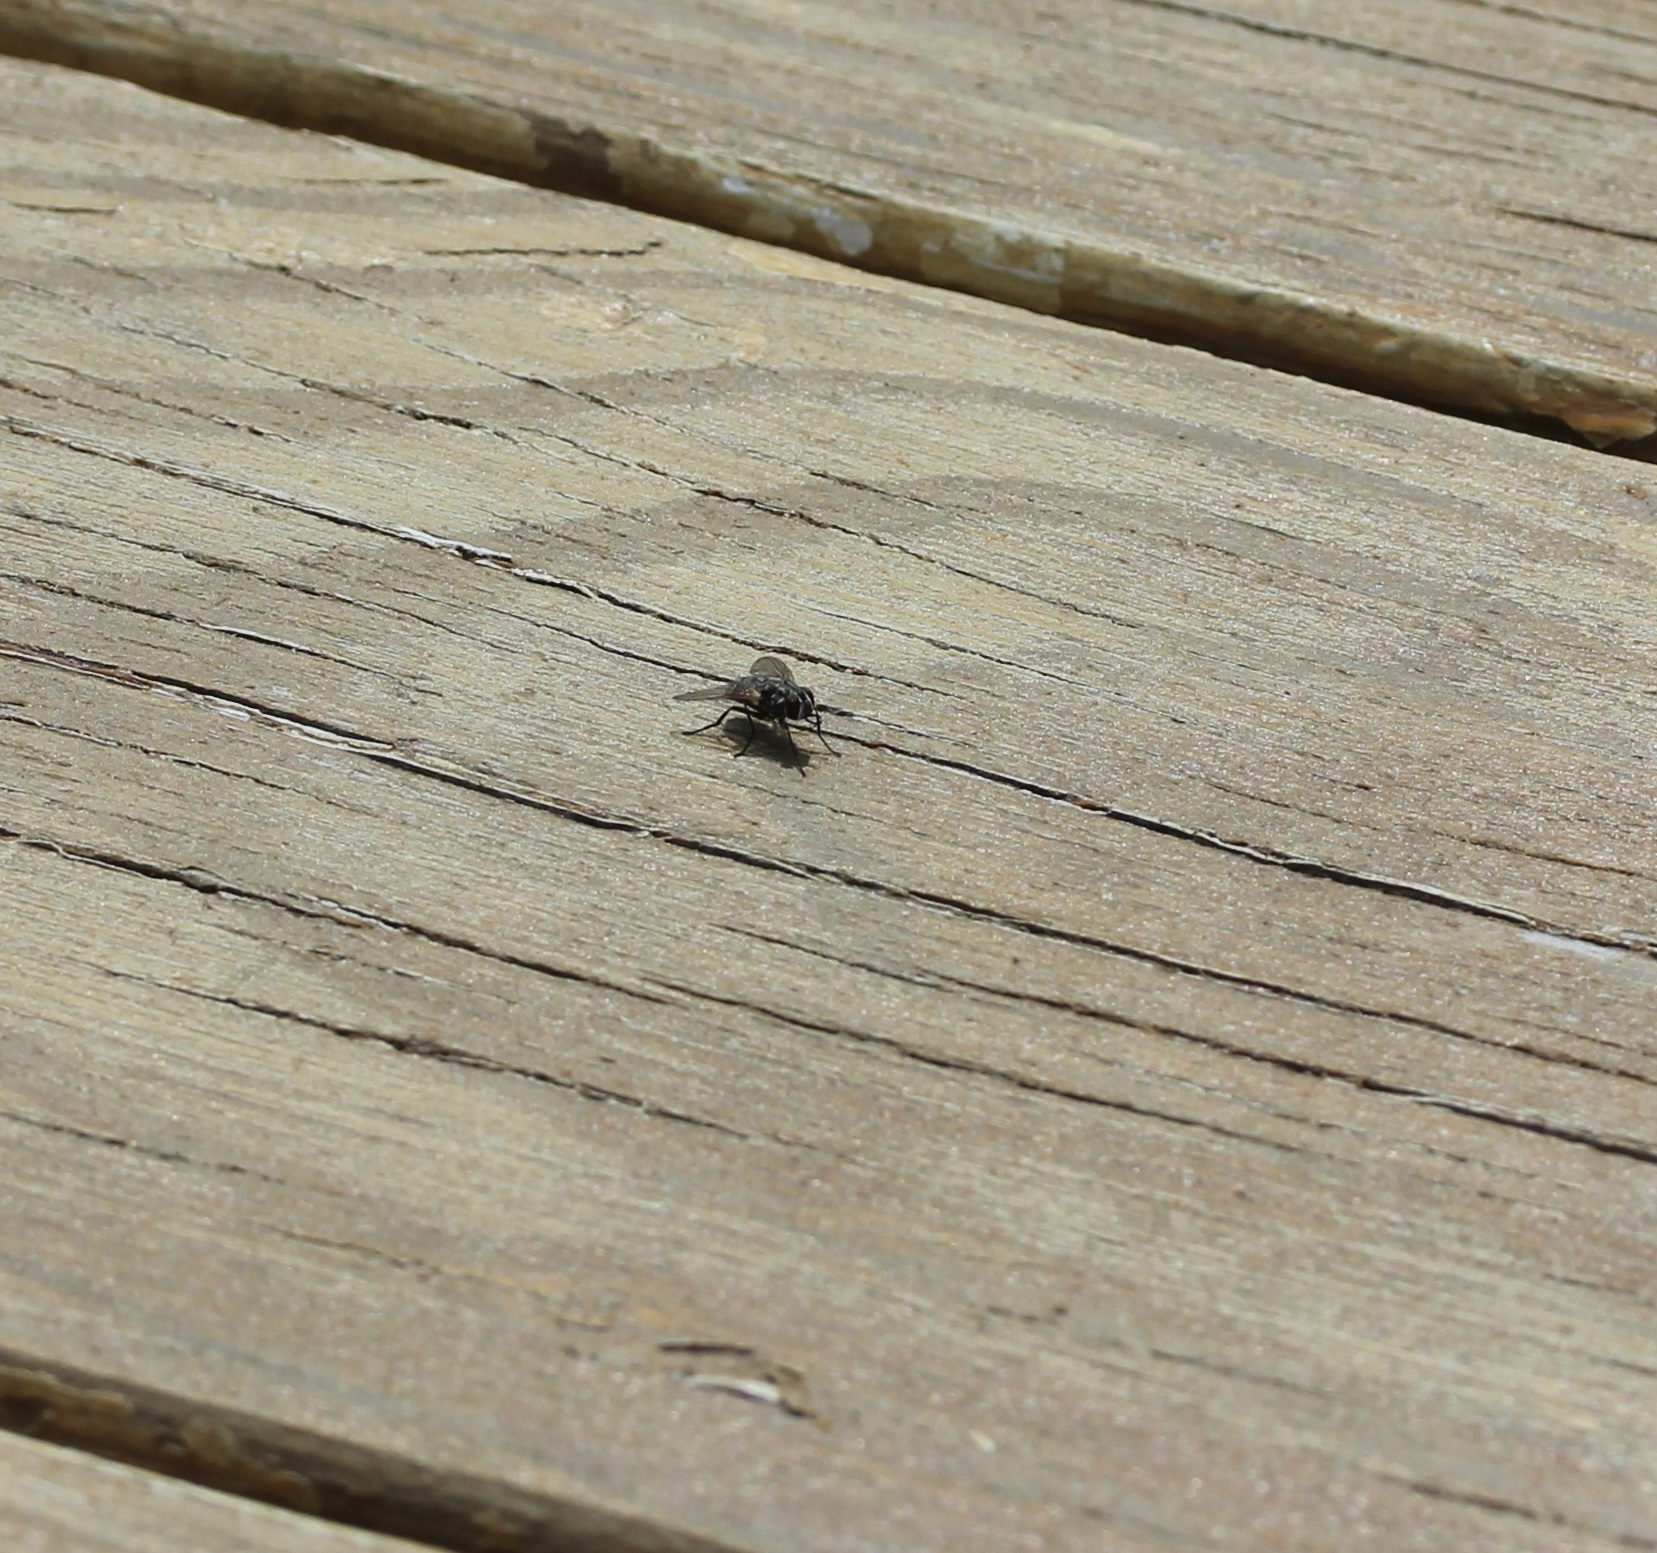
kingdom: Animalia
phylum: Arthropoda
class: Insecta
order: Diptera
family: Muscidae
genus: Stomoxys
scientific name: Stomoxys calcitrans
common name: Stable fly
